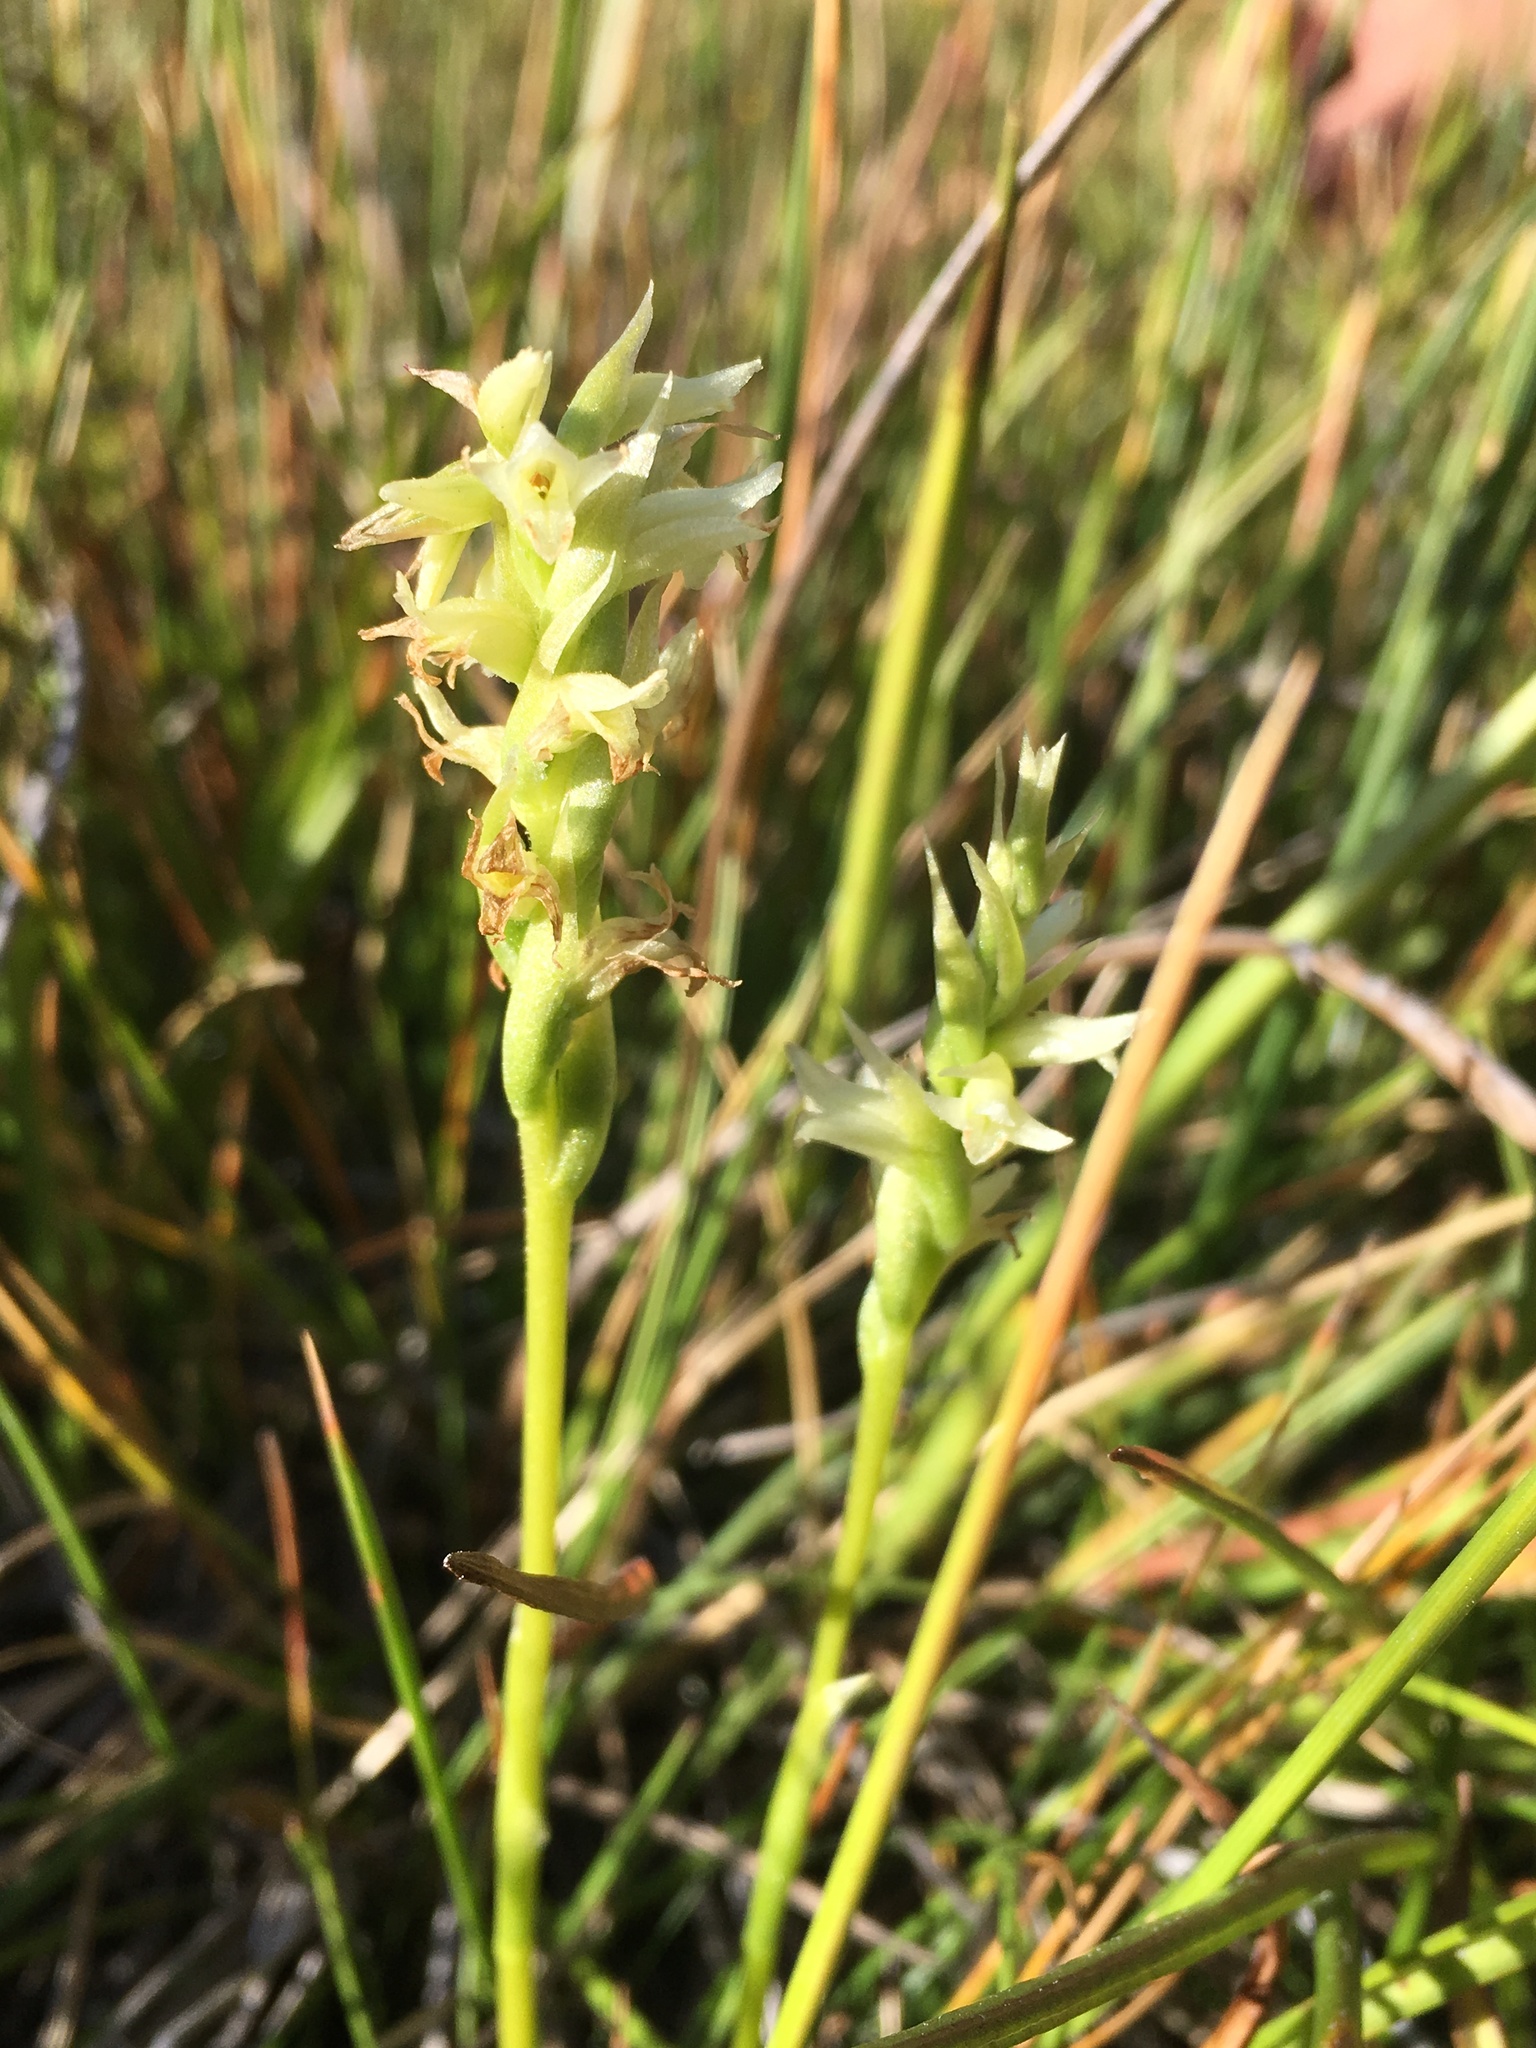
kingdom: Plantae
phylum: Tracheophyta
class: Liliopsida
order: Asparagales
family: Orchidaceae
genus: Spiranthes
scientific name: Spiranthes stellata
